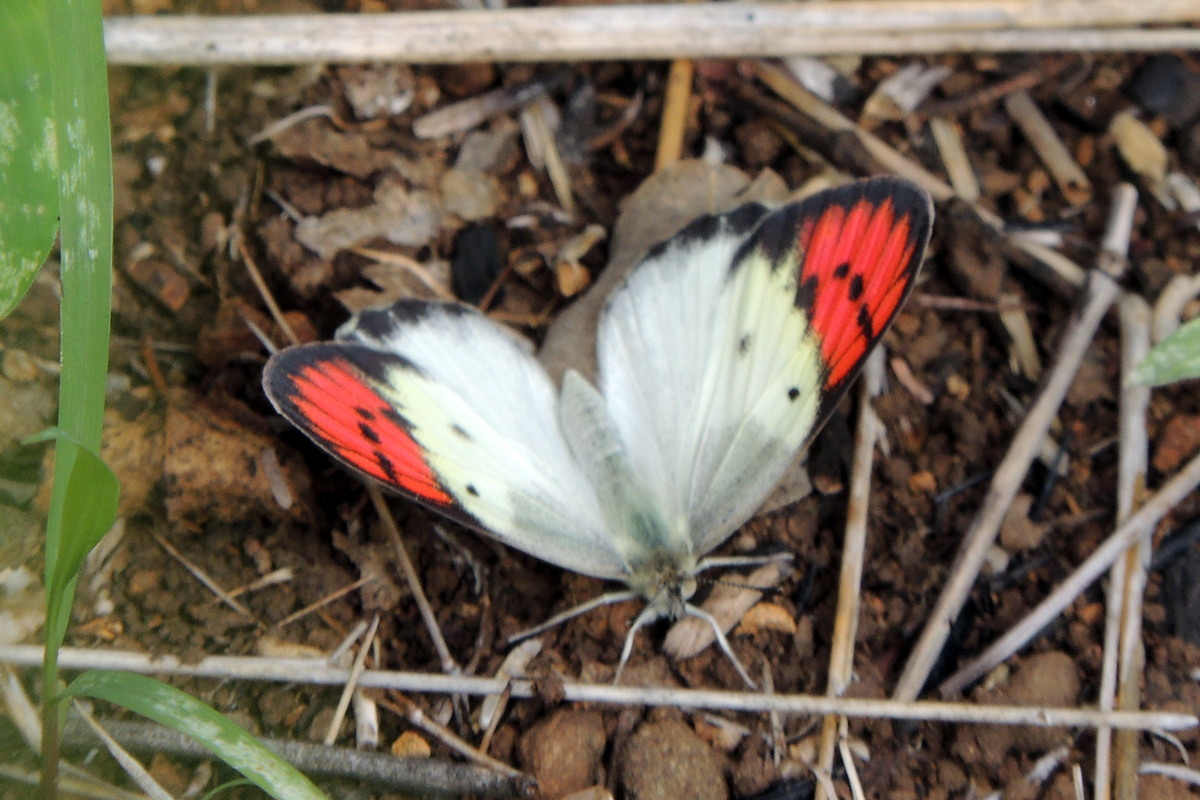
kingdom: Animalia
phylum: Arthropoda
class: Insecta
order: Lepidoptera
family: Pieridae
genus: Colotis
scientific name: Colotis danae
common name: Crimson tip
